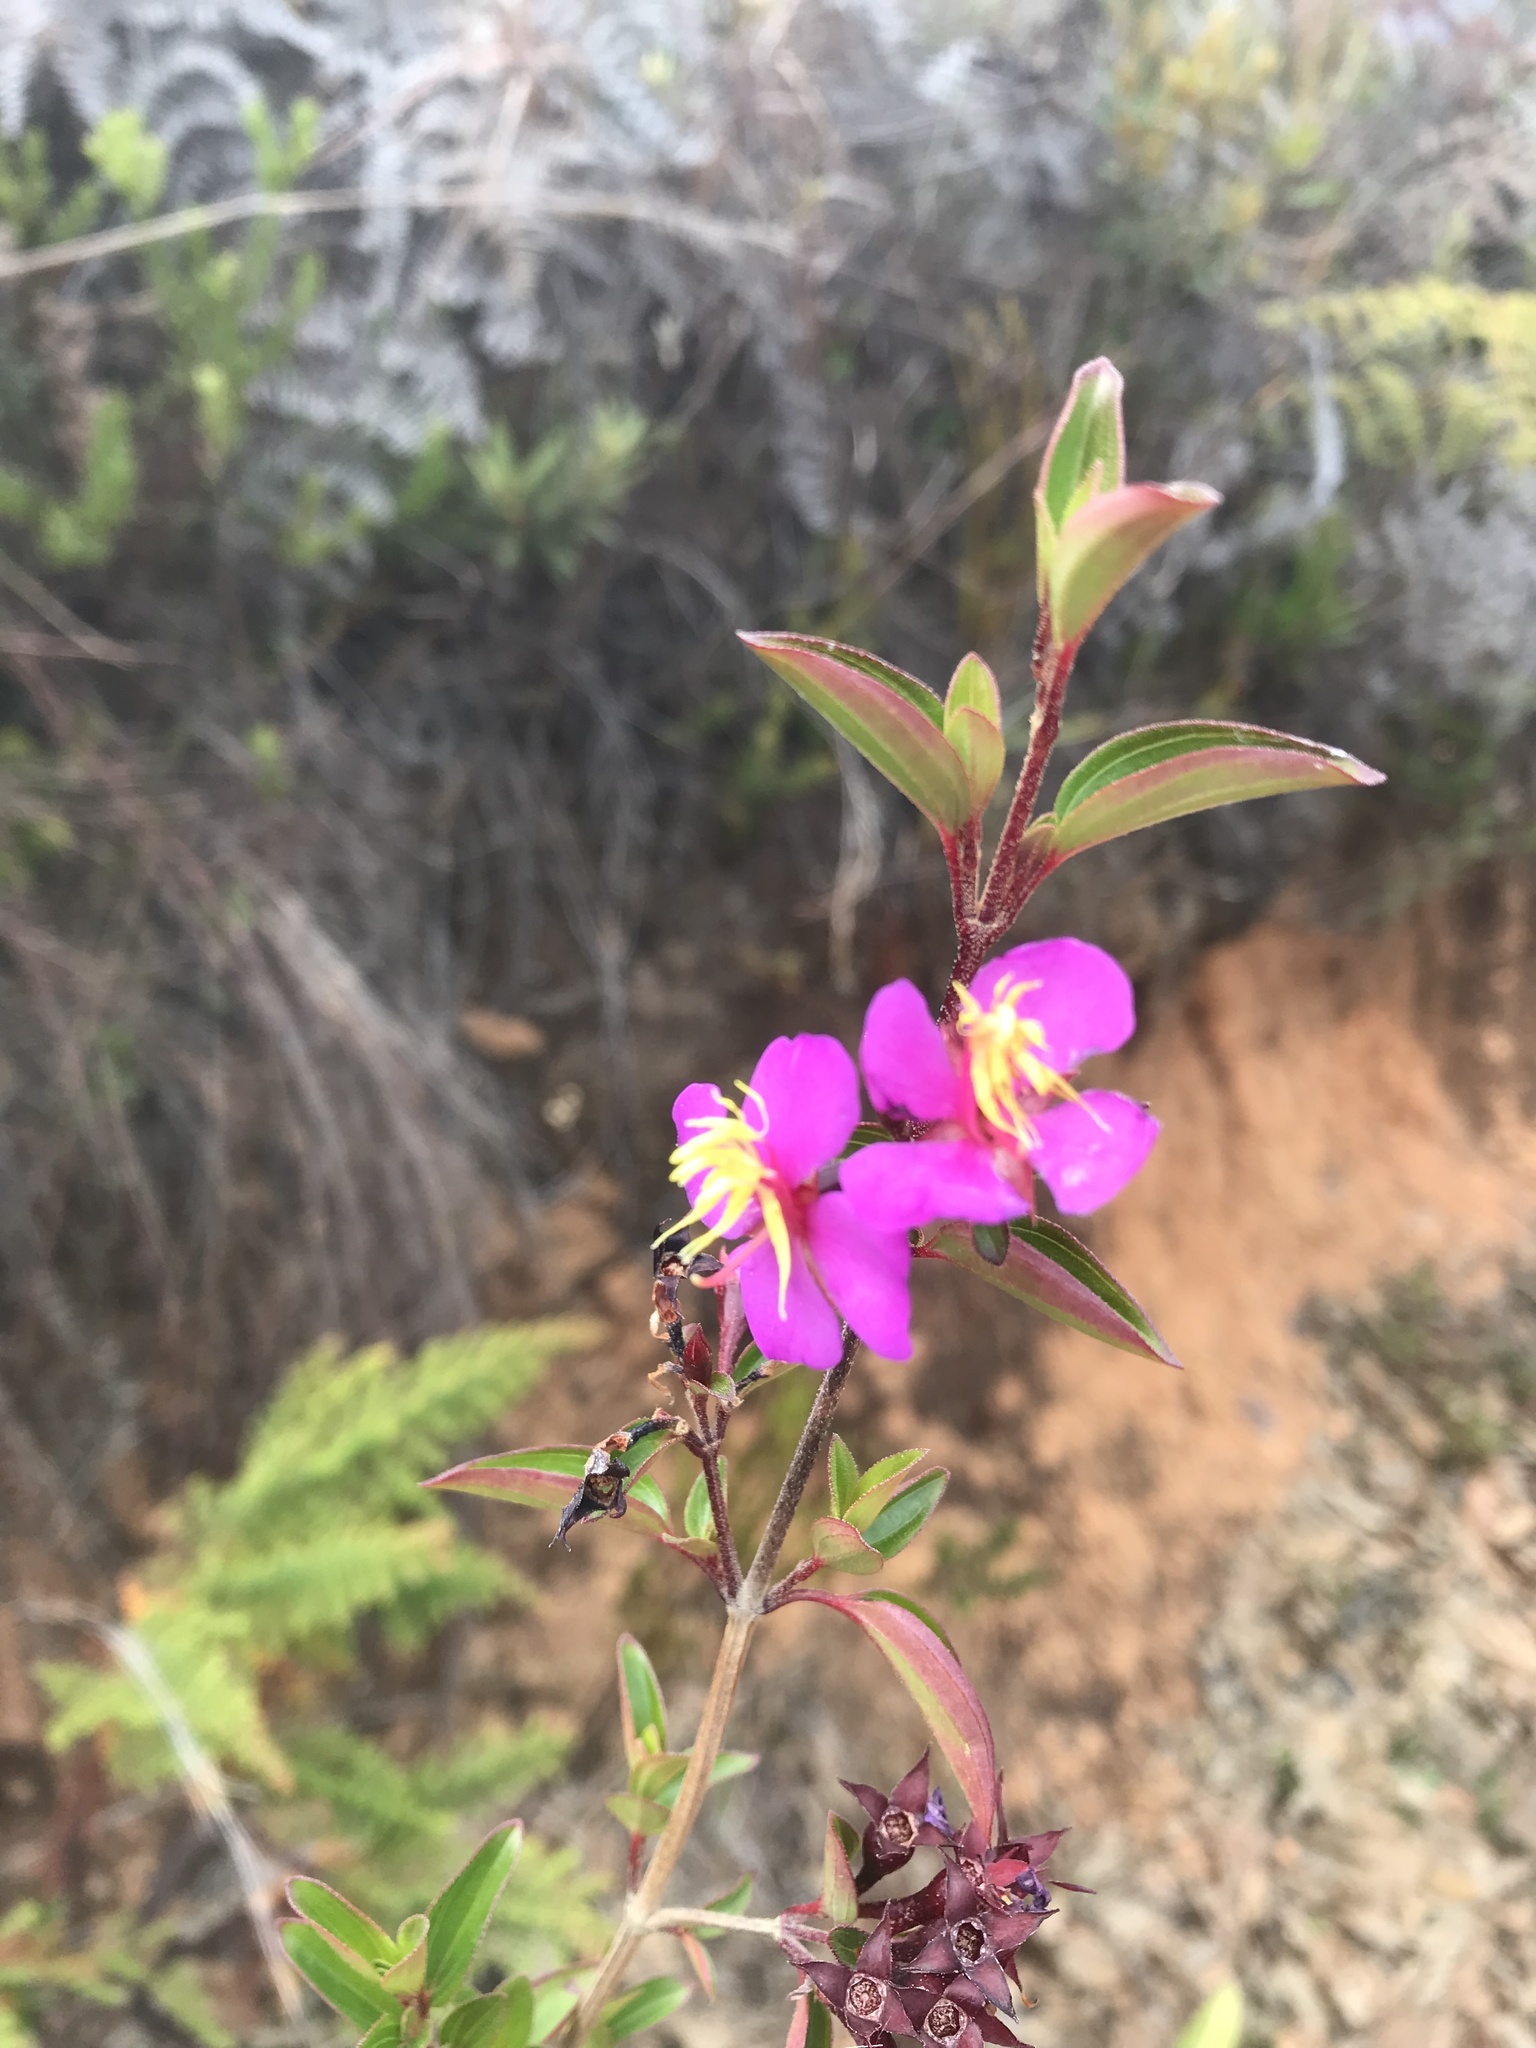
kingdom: Plantae
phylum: Tracheophyta
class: Magnoliopsida
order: Myrtales
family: Melastomataceae
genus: Monochaetum
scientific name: Monochaetum myrtoideum
